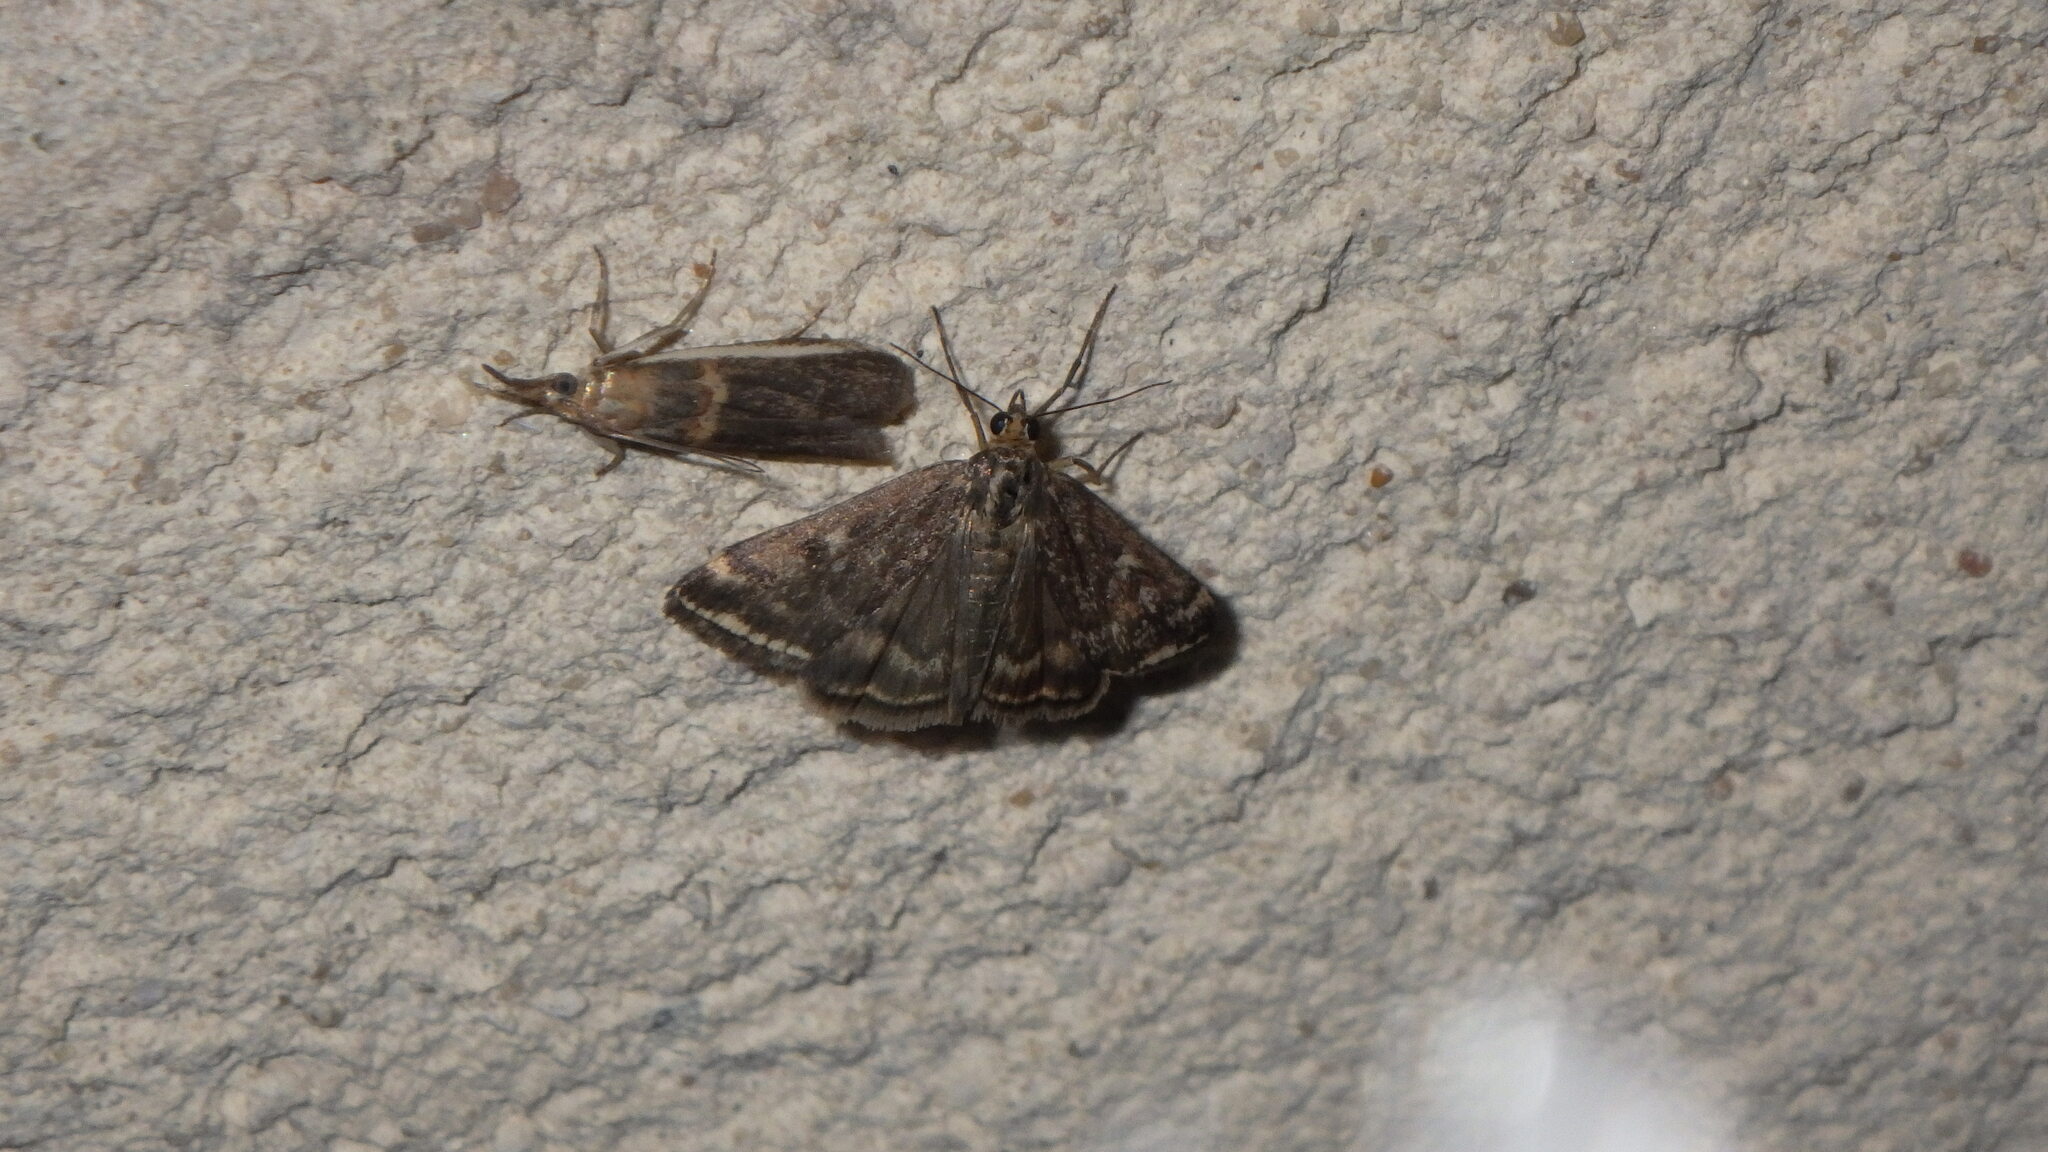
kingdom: Animalia
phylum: Arthropoda
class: Insecta
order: Lepidoptera
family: Crambidae
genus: Pyrausta
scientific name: Pyrausta despicata
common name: Straw-barred pearl
